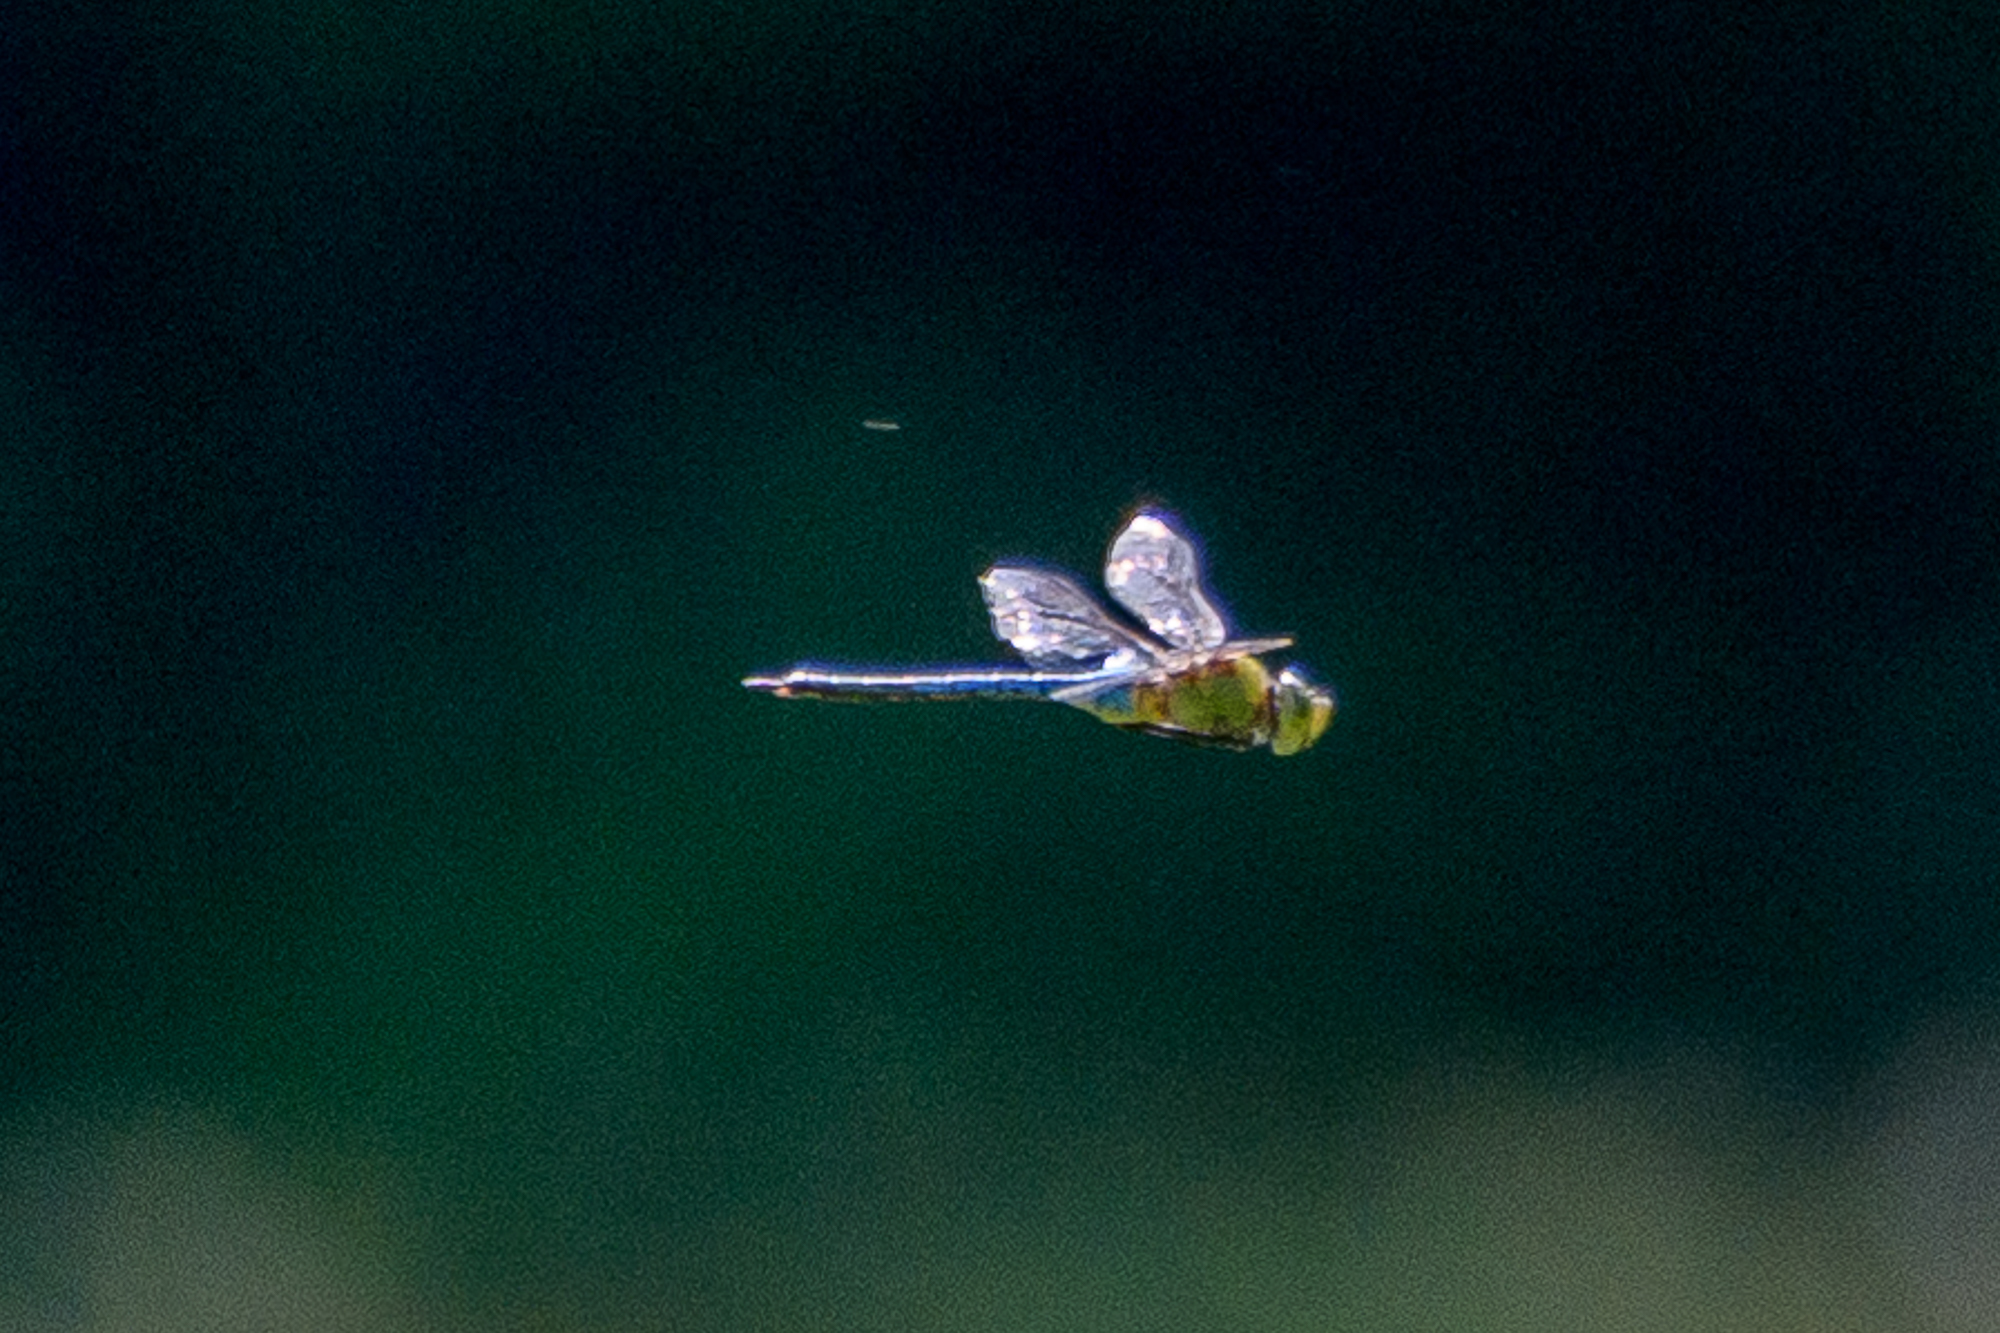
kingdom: Animalia
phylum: Arthropoda
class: Insecta
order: Odonata
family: Aeshnidae
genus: Anax
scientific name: Anax junius
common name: Common green darner
